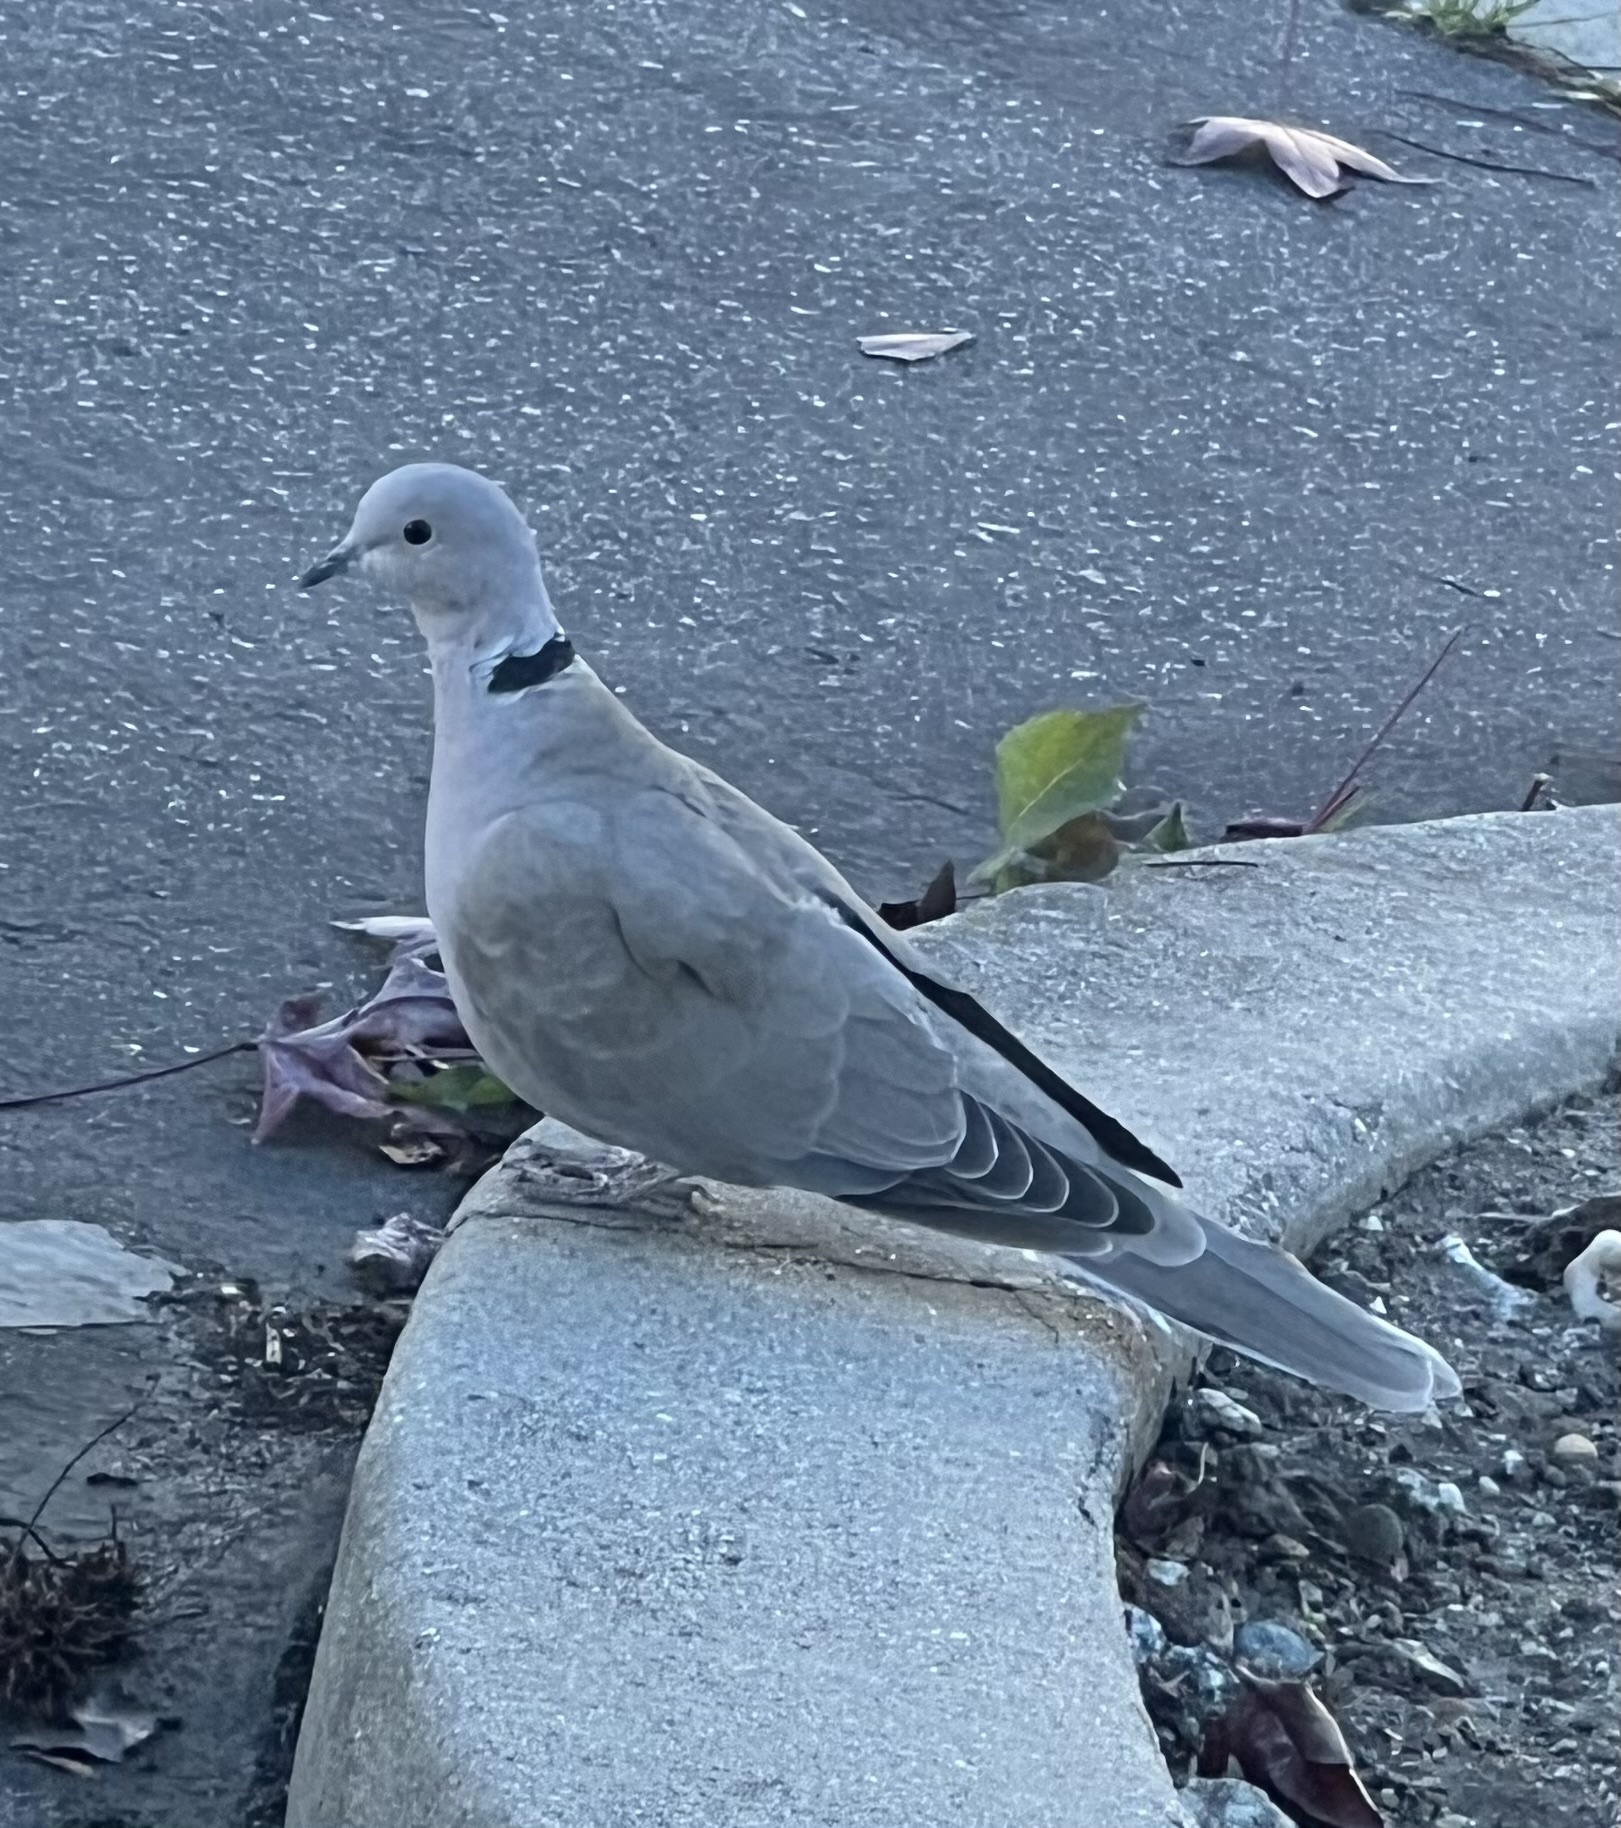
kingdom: Animalia
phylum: Chordata
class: Aves
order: Columbiformes
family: Columbidae
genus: Streptopelia
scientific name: Streptopelia decaocto
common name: Eurasian collared dove
